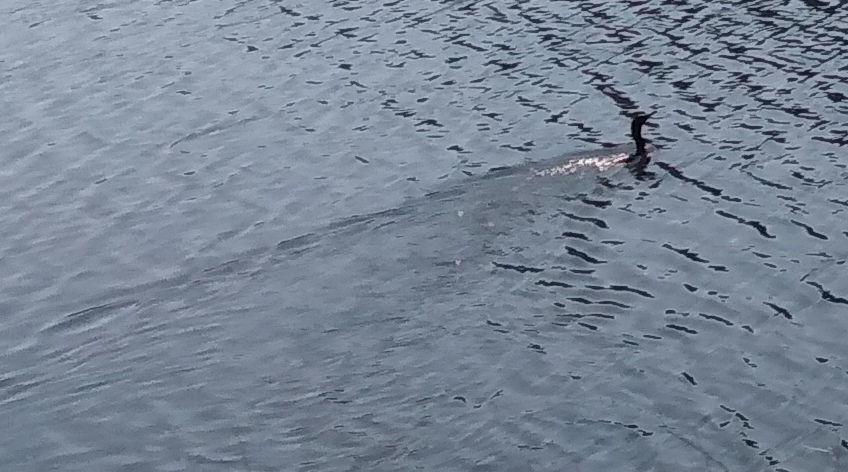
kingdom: Animalia
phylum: Chordata
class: Aves
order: Suliformes
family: Phalacrocoracidae
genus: Phalacrocorax
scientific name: Phalacrocorax auritus
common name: Double-crested cormorant
